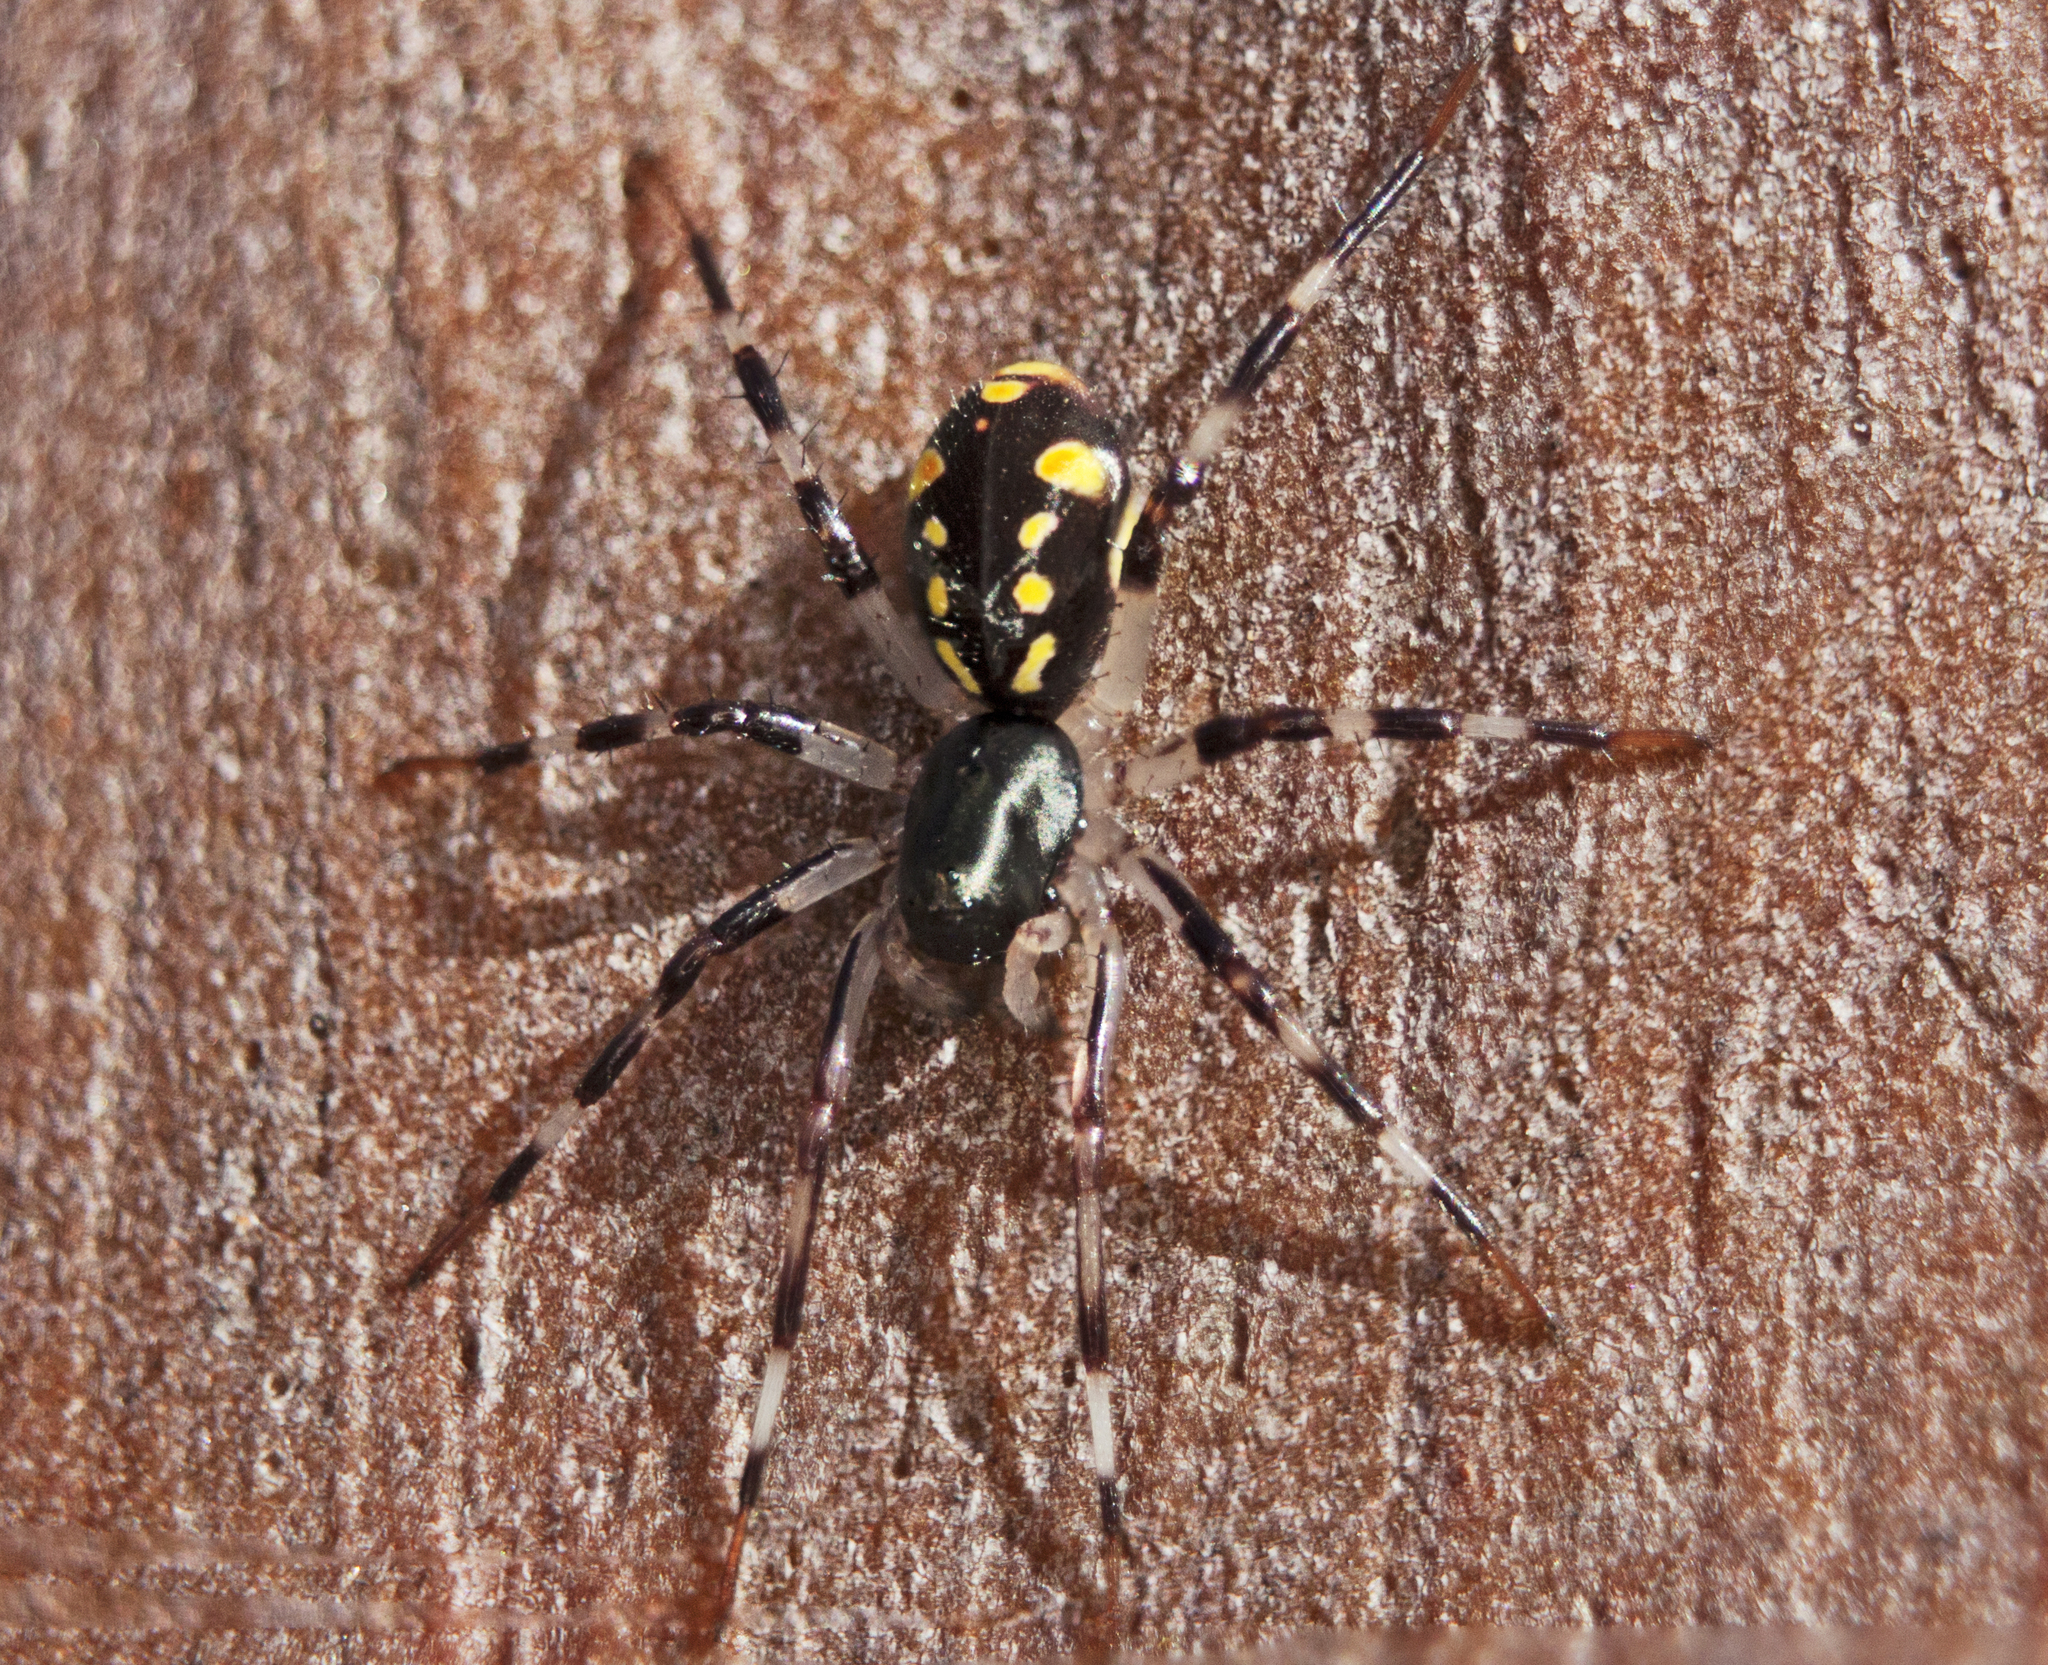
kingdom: Animalia
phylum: Arthropoda
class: Arachnida
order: Araneae
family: Zodariidae
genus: Subasteron
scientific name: Subasteron daviesae
